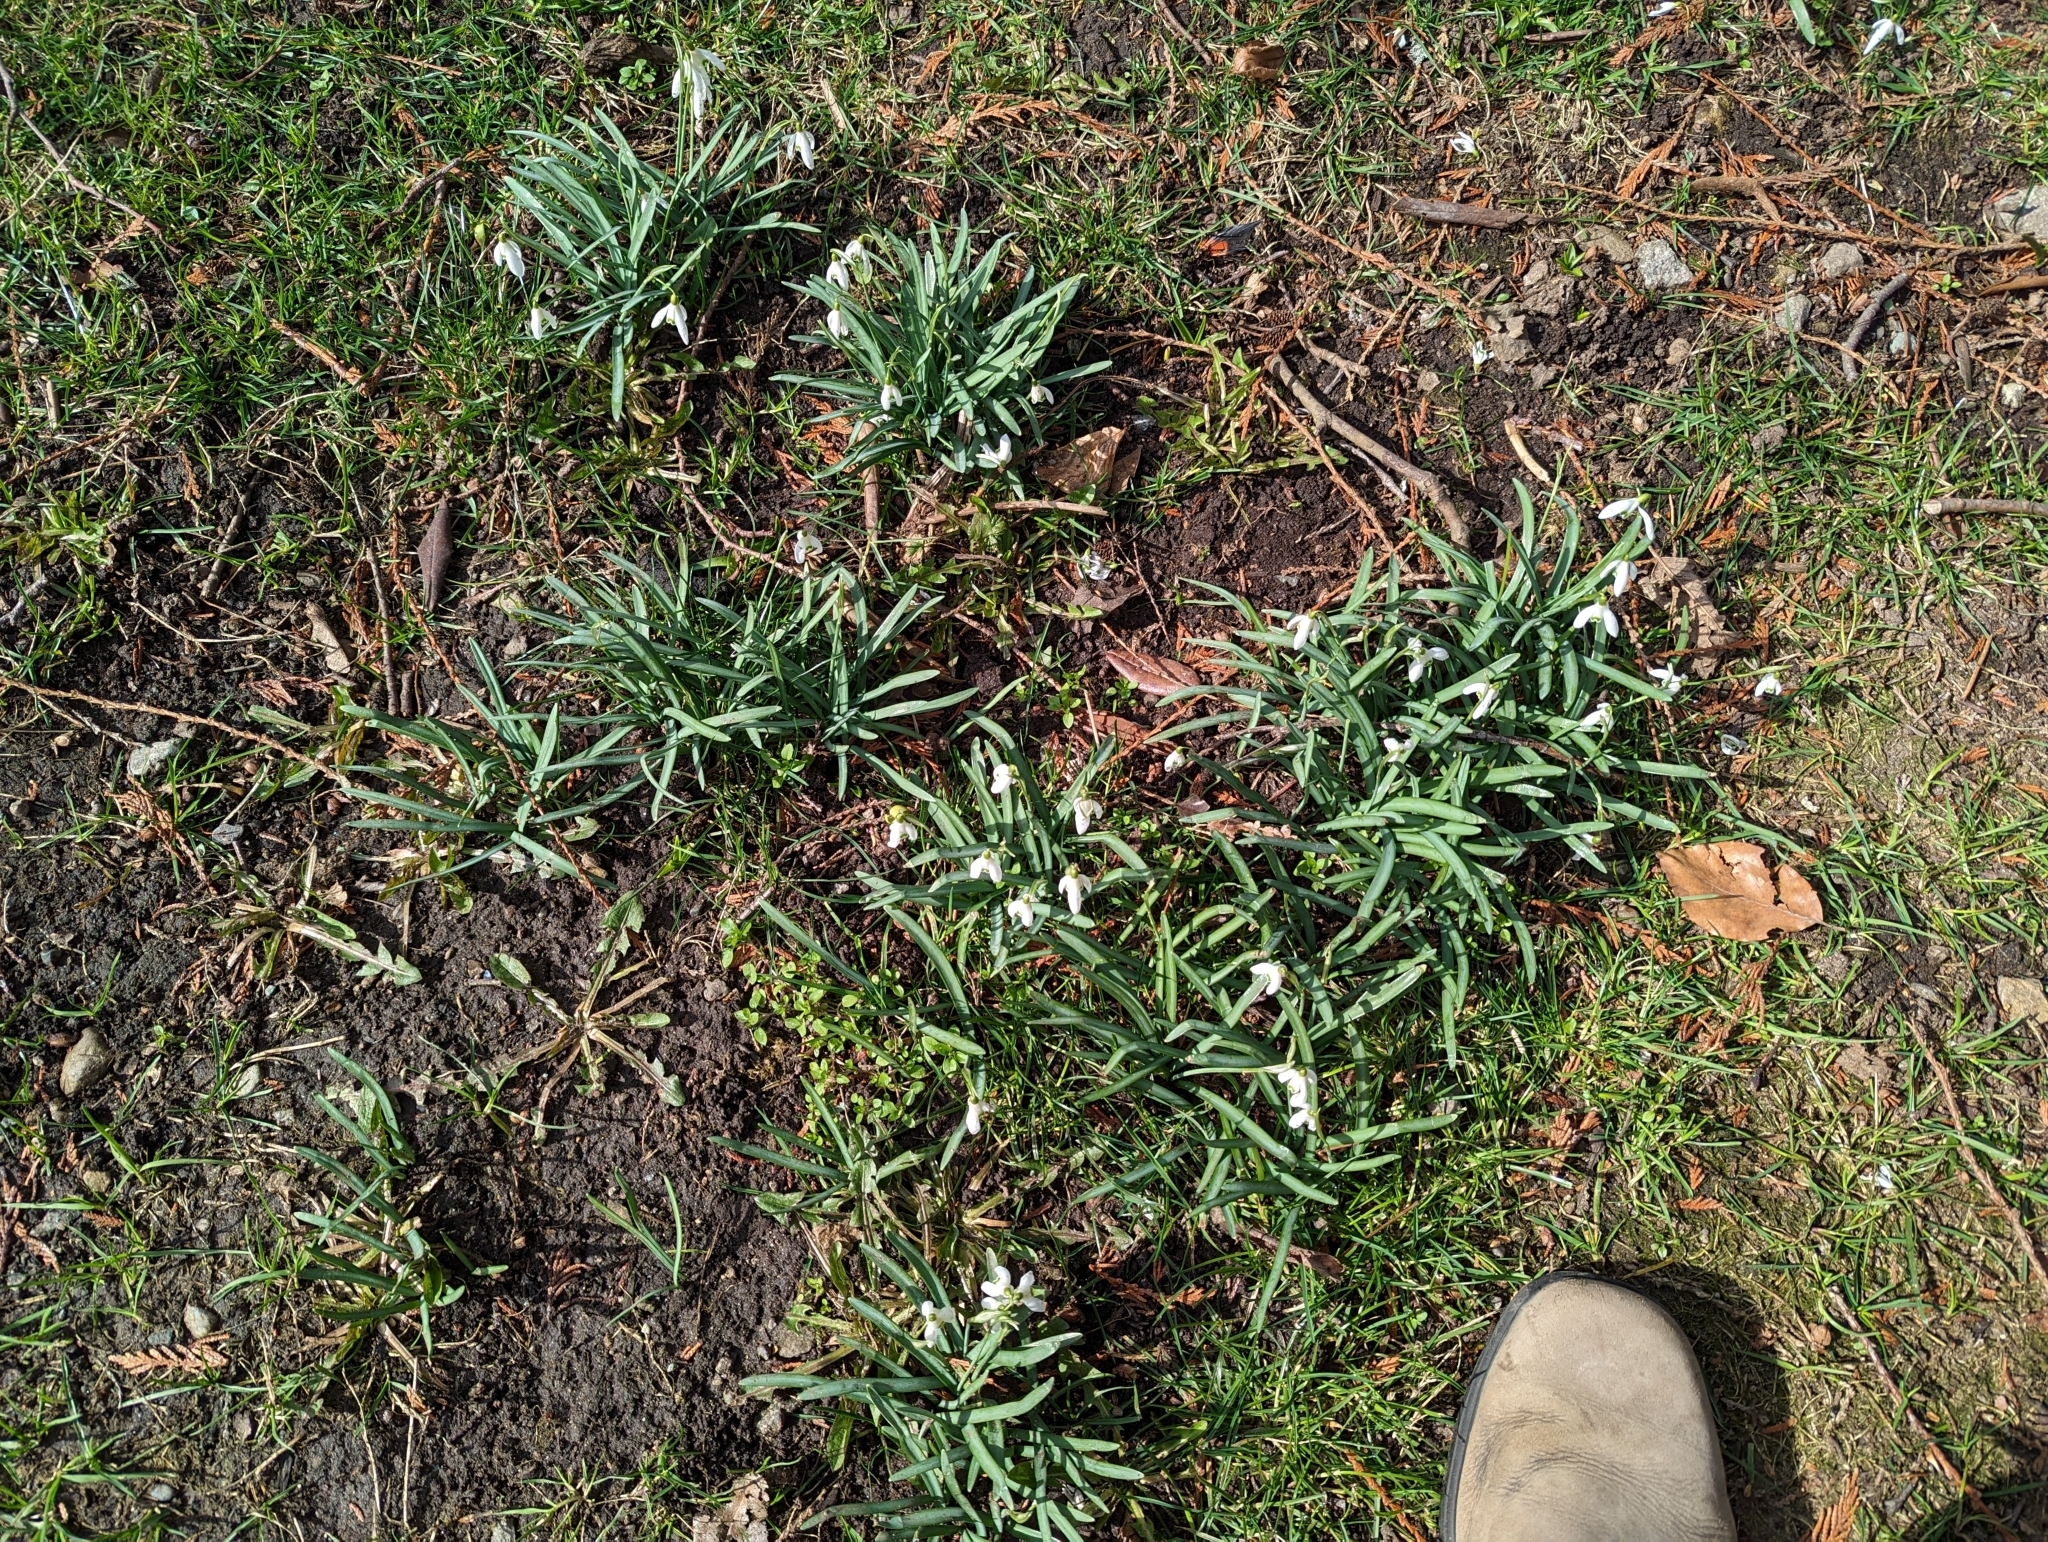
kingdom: Plantae
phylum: Tracheophyta
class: Liliopsida
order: Asparagales
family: Amaryllidaceae
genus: Galanthus
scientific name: Galanthus nivalis
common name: Snowdrop
